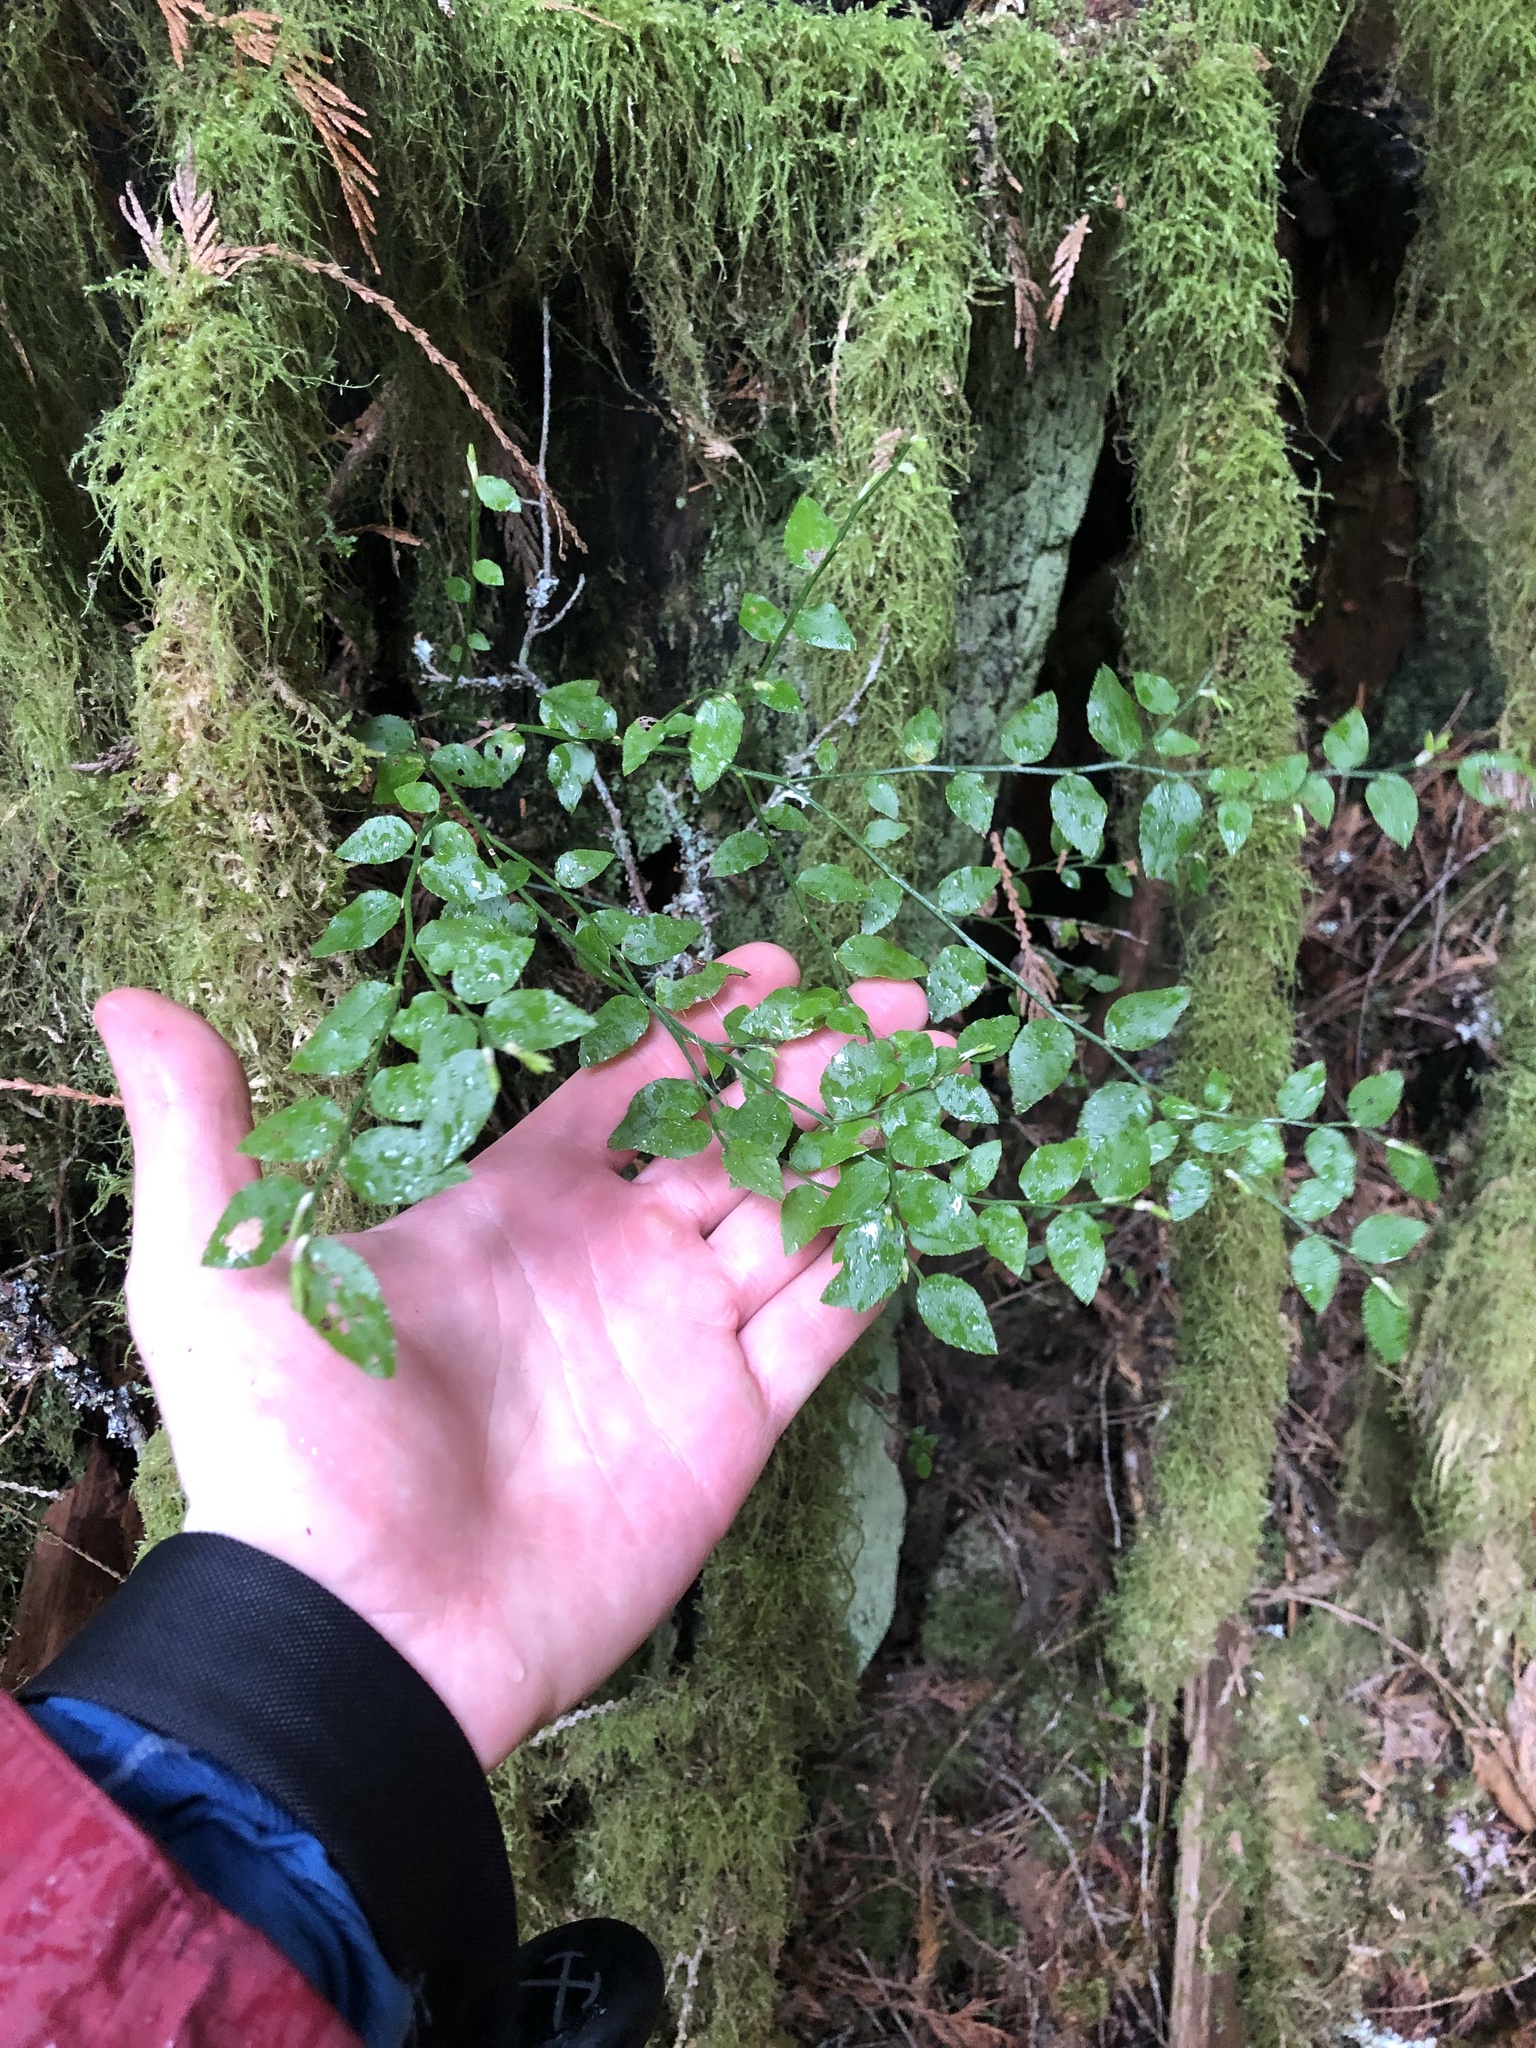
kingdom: Plantae
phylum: Tracheophyta
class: Magnoliopsida
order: Ericales
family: Ericaceae
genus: Vaccinium
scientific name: Vaccinium parvifolium
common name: Red-huckleberry
